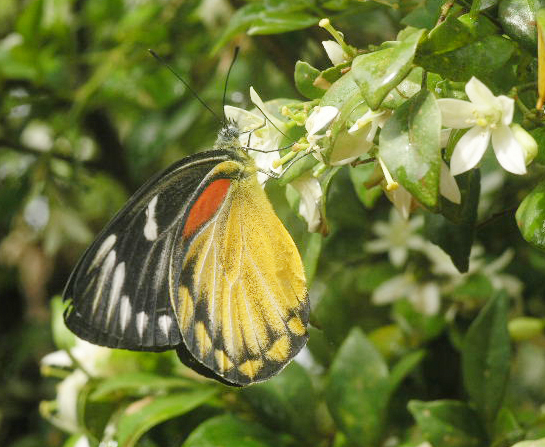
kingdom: Animalia
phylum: Arthropoda
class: Insecta
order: Lepidoptera
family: Pieridae
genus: Delias
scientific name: Delias descombesi
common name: Red-spot jezebel
